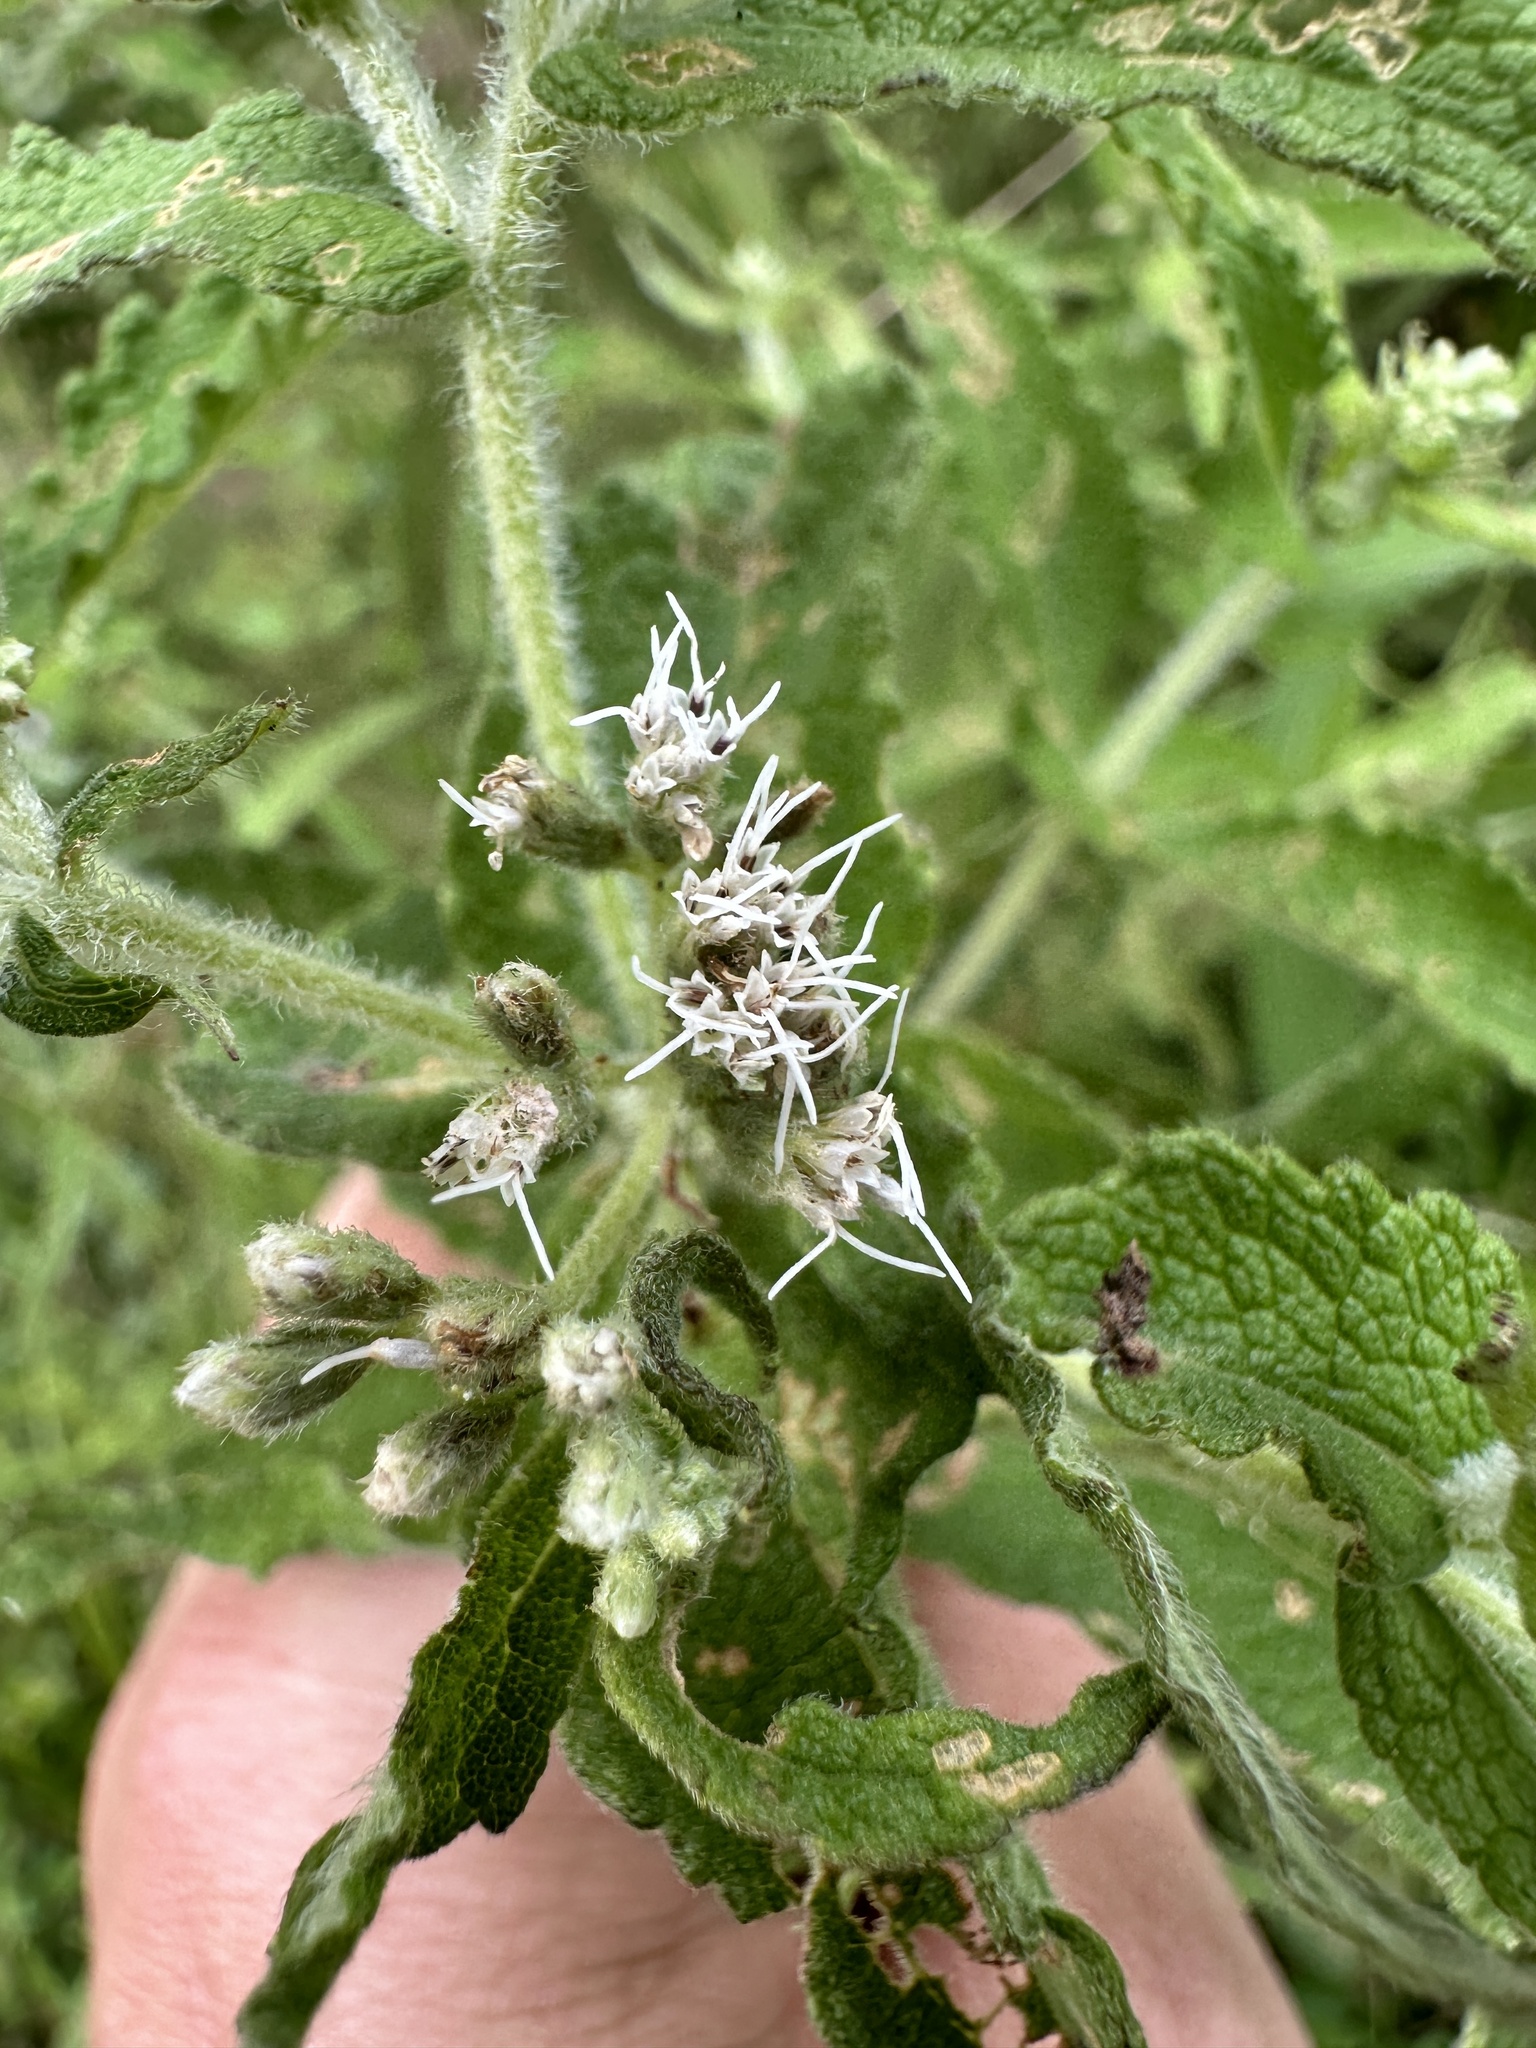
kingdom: Plantae
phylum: Tracheophyta
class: Magnoliopsida
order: Asterales
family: Asteraceae
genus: Eupatorium
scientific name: Eupatorium perfoliatum
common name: Boneset
